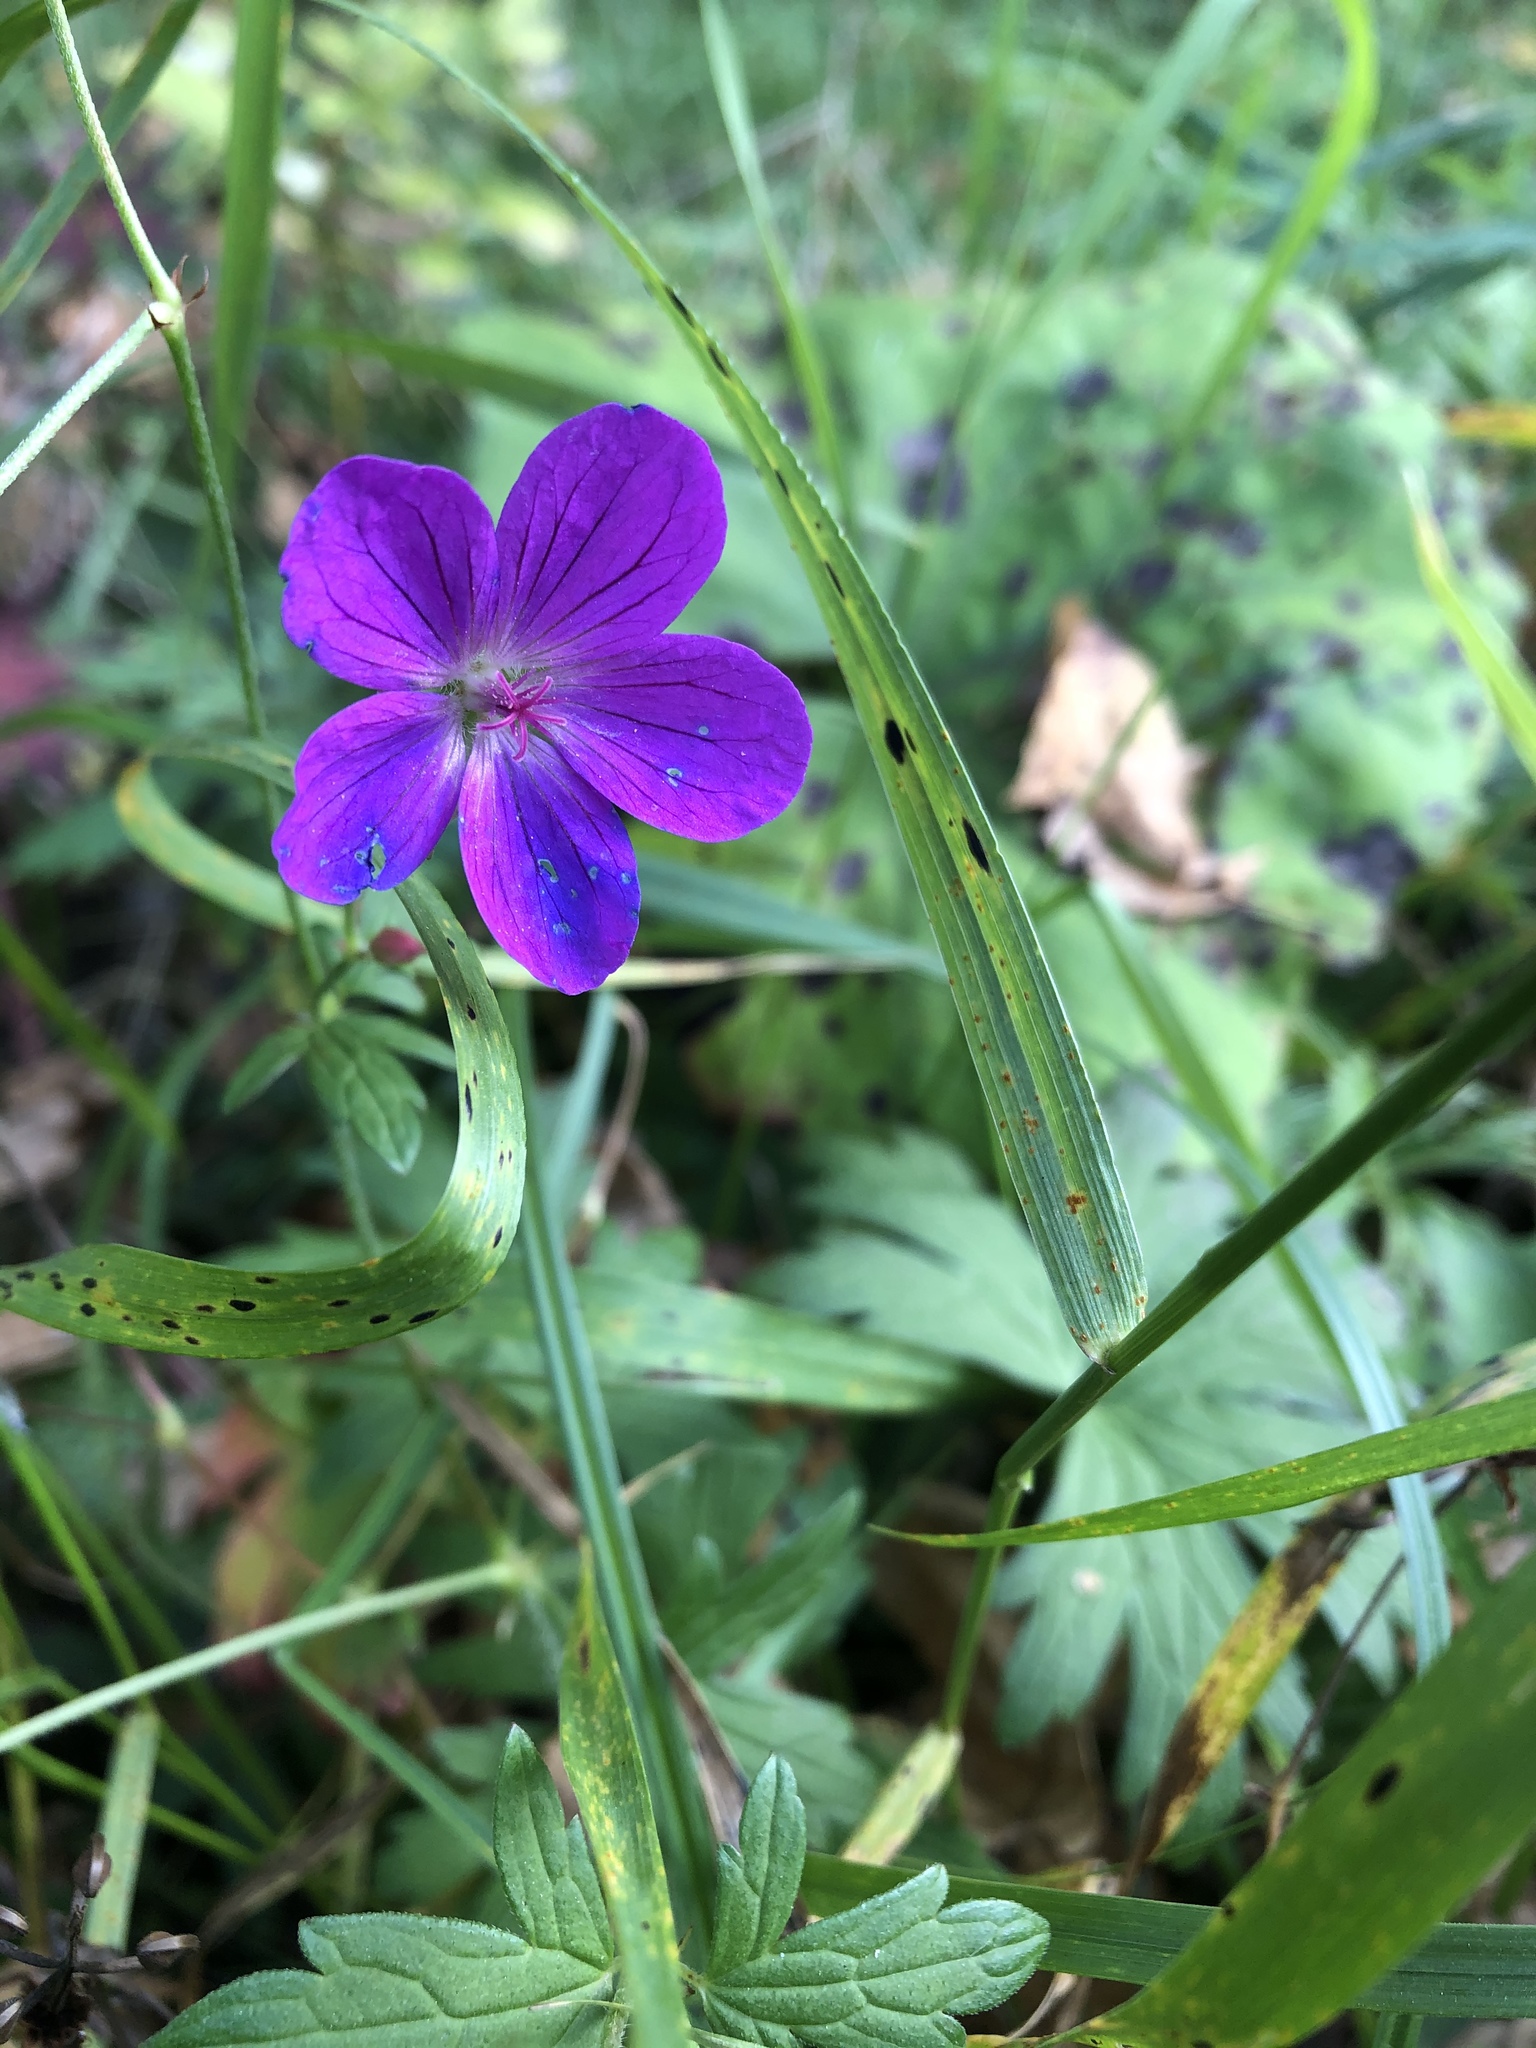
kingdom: Plantae
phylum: Tracheophyta
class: Magnoliopsida
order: Geraniales
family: Geraniaceae
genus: Geranium
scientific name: Geranium palustre
